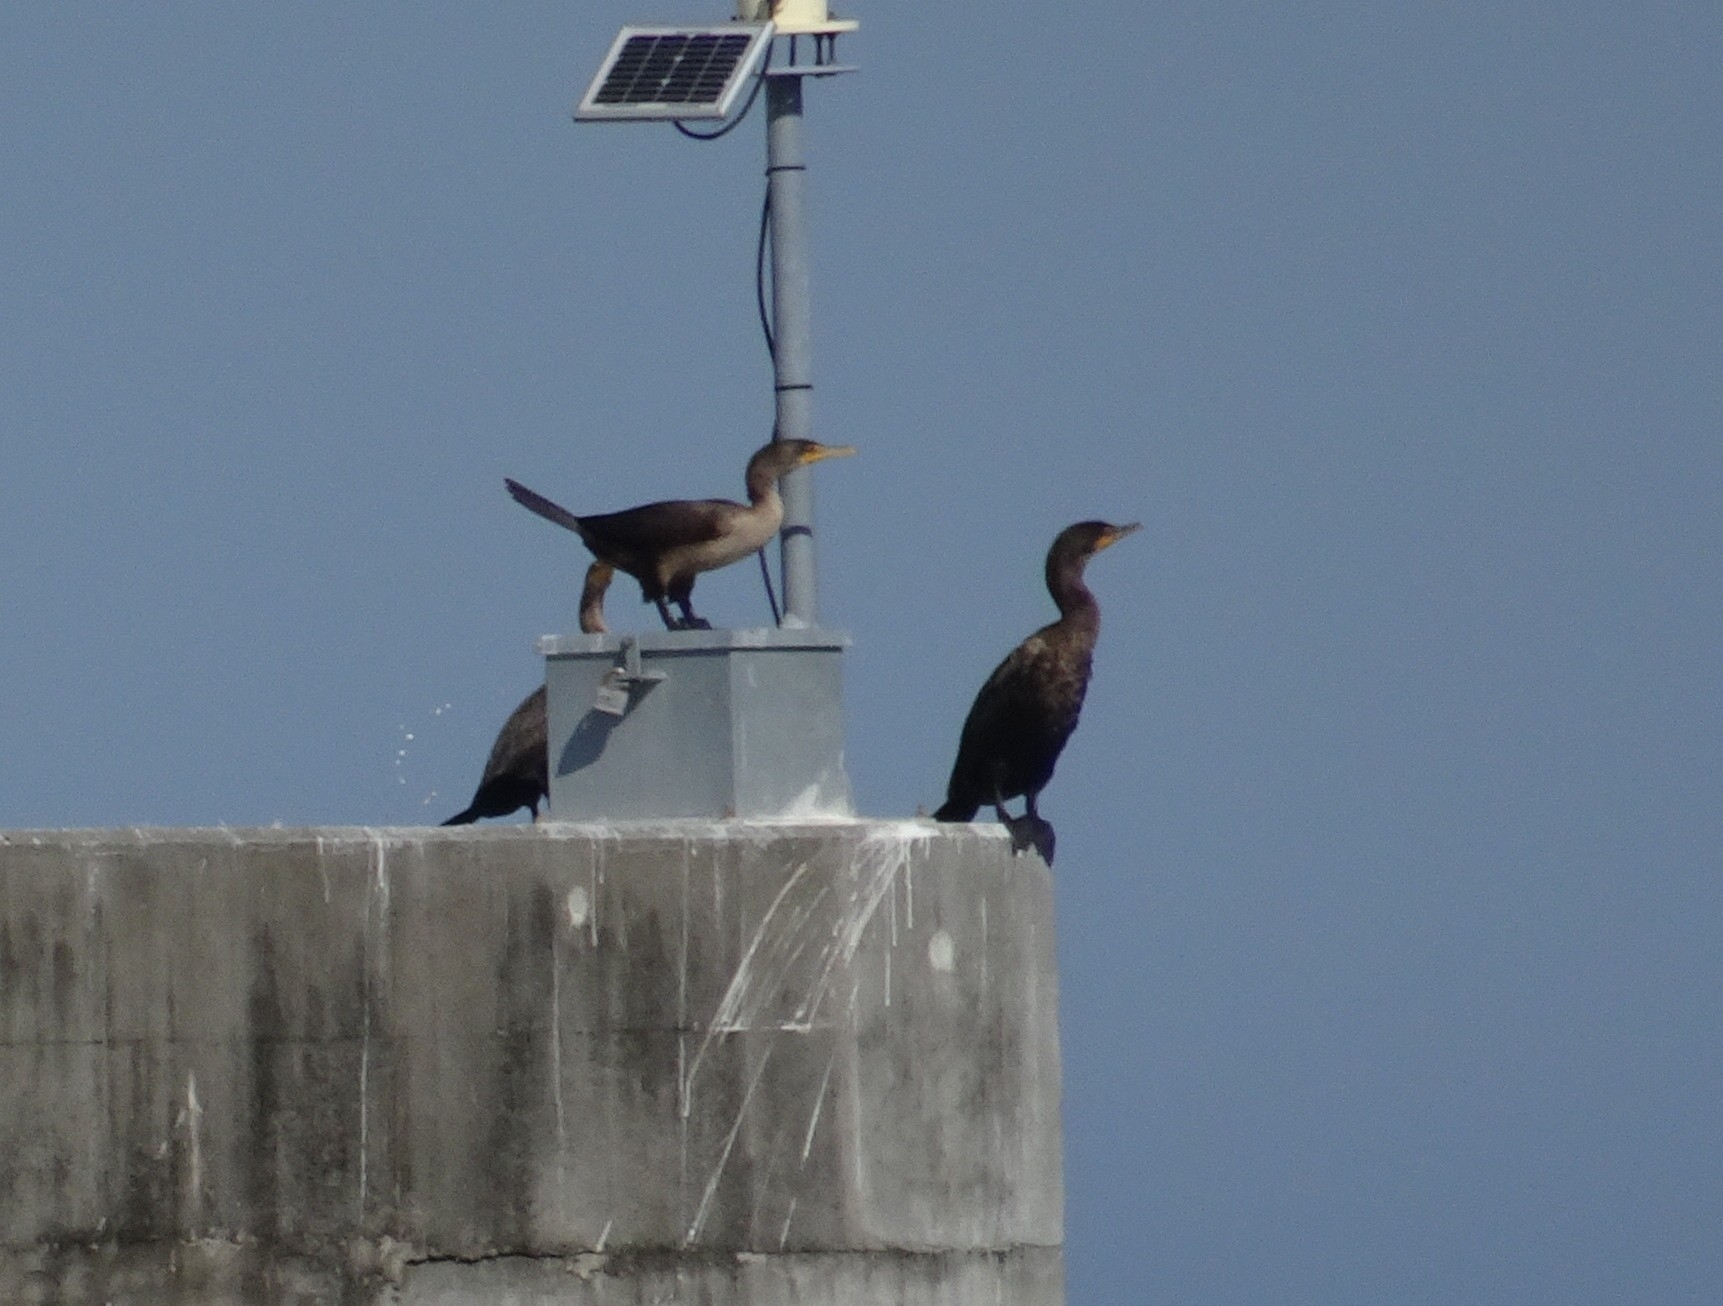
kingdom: Animalia
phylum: Chordata
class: Aves
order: Suliformes
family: Phalacrocoracidae
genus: Phalacrocorax
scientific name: Phalacrocorax auritus
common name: Double-crested cormorant
